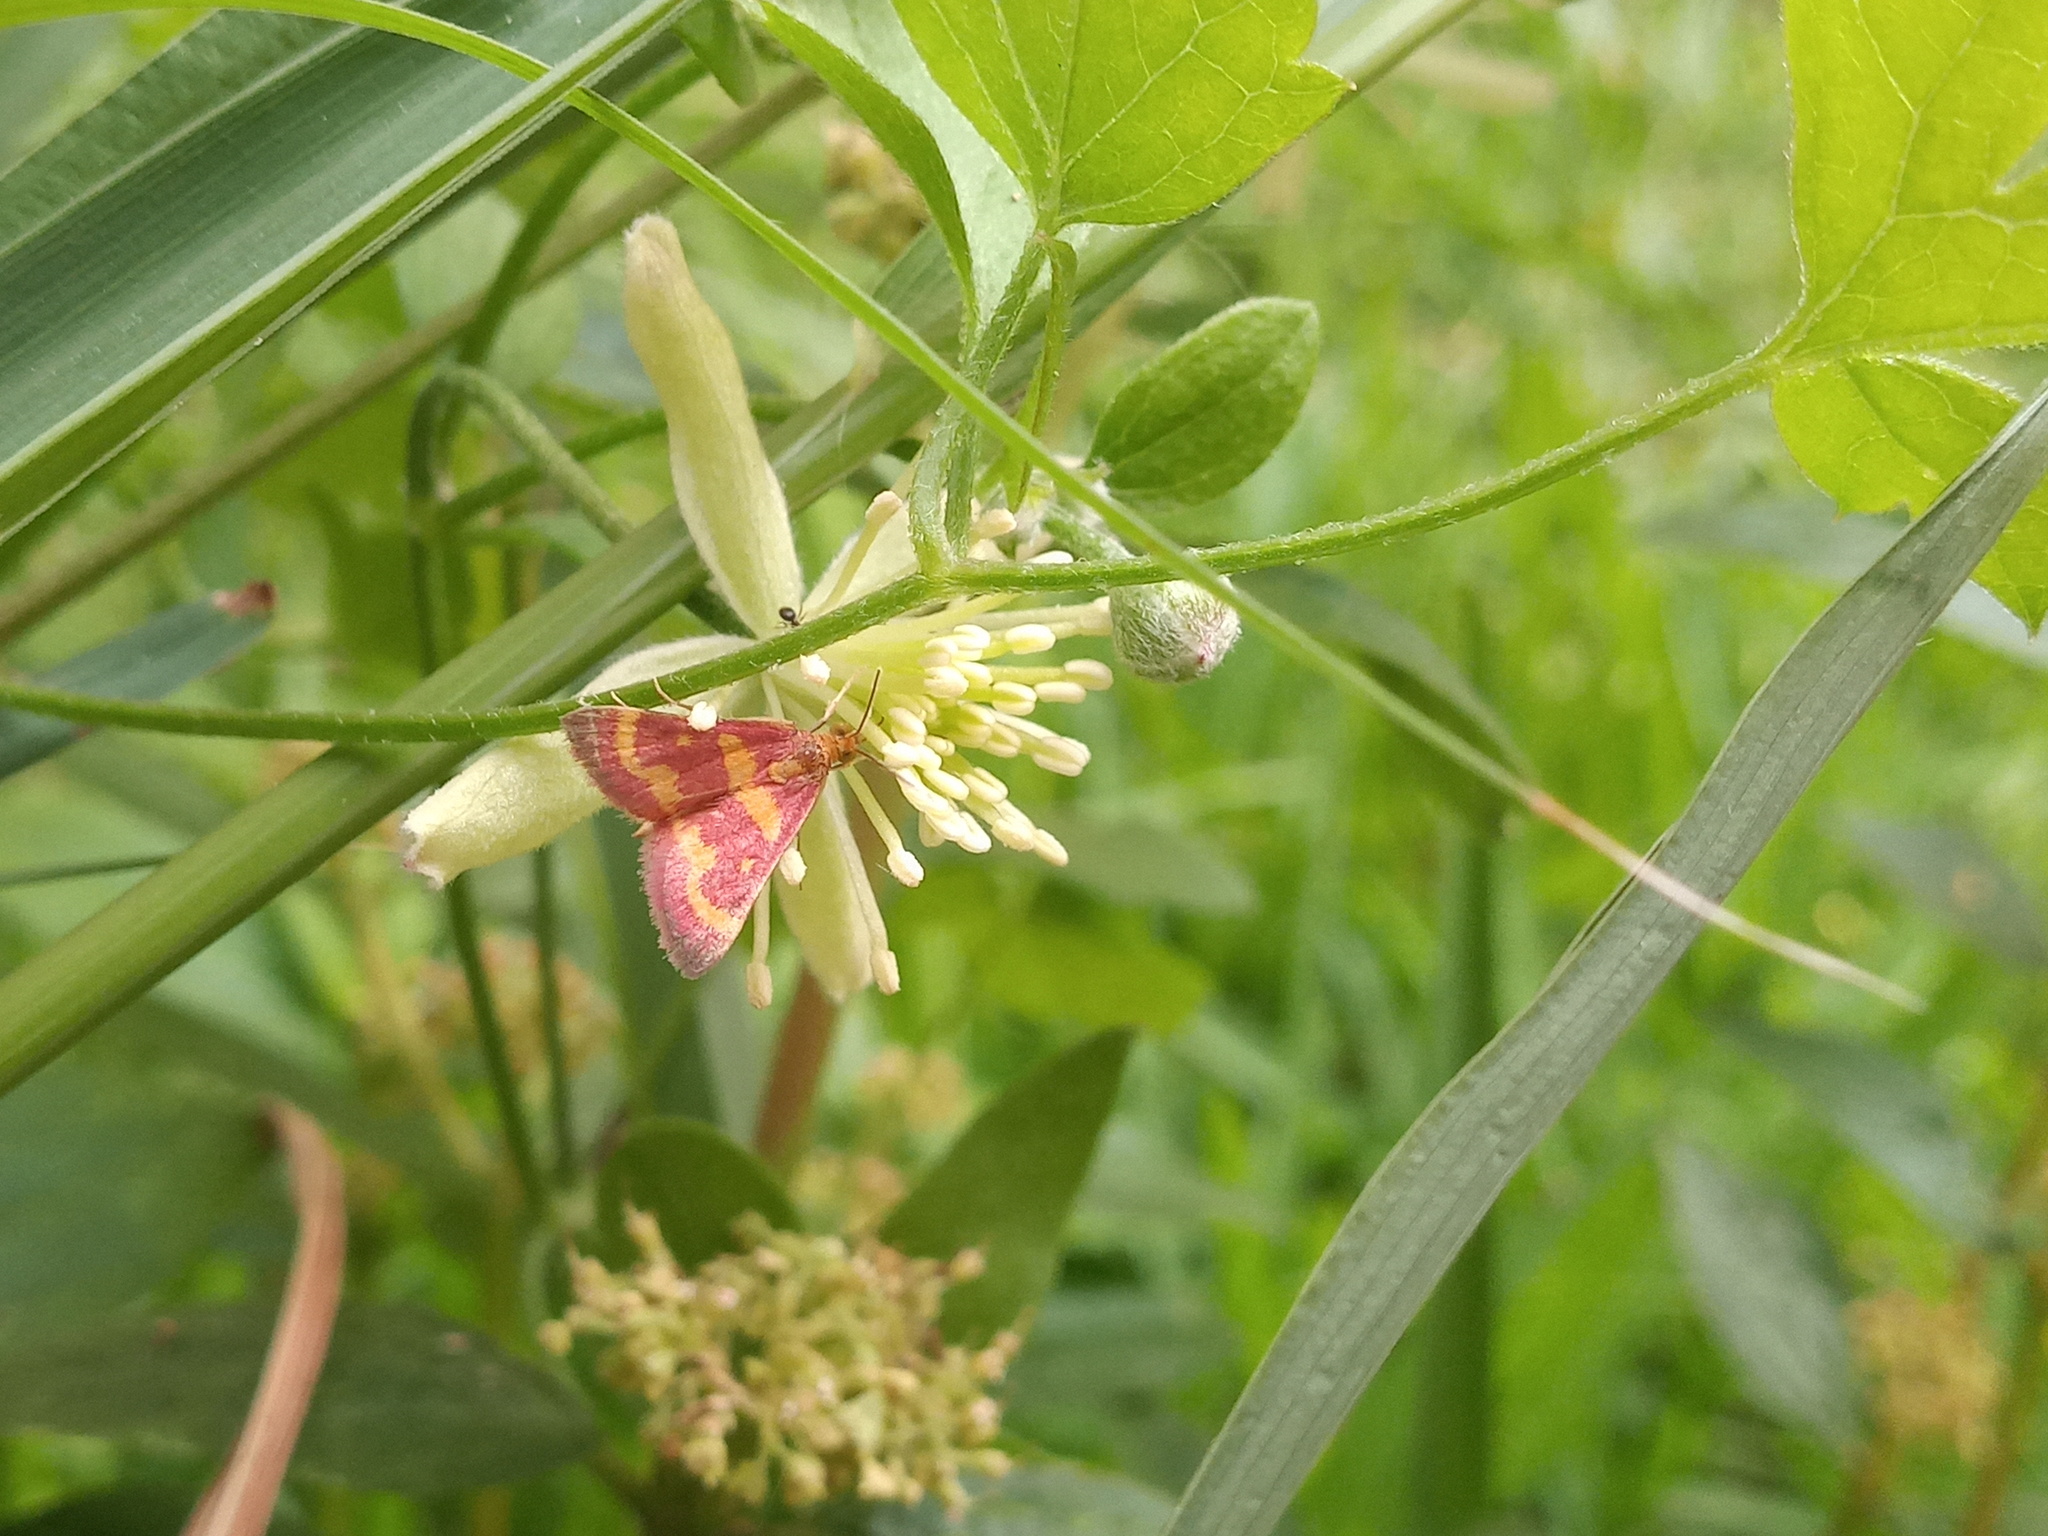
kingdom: Animalia
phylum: Arthropoda
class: Insecta
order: Lepidoptera
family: Crambidae
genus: Pyrausta
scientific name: Pyrausta tyralis
